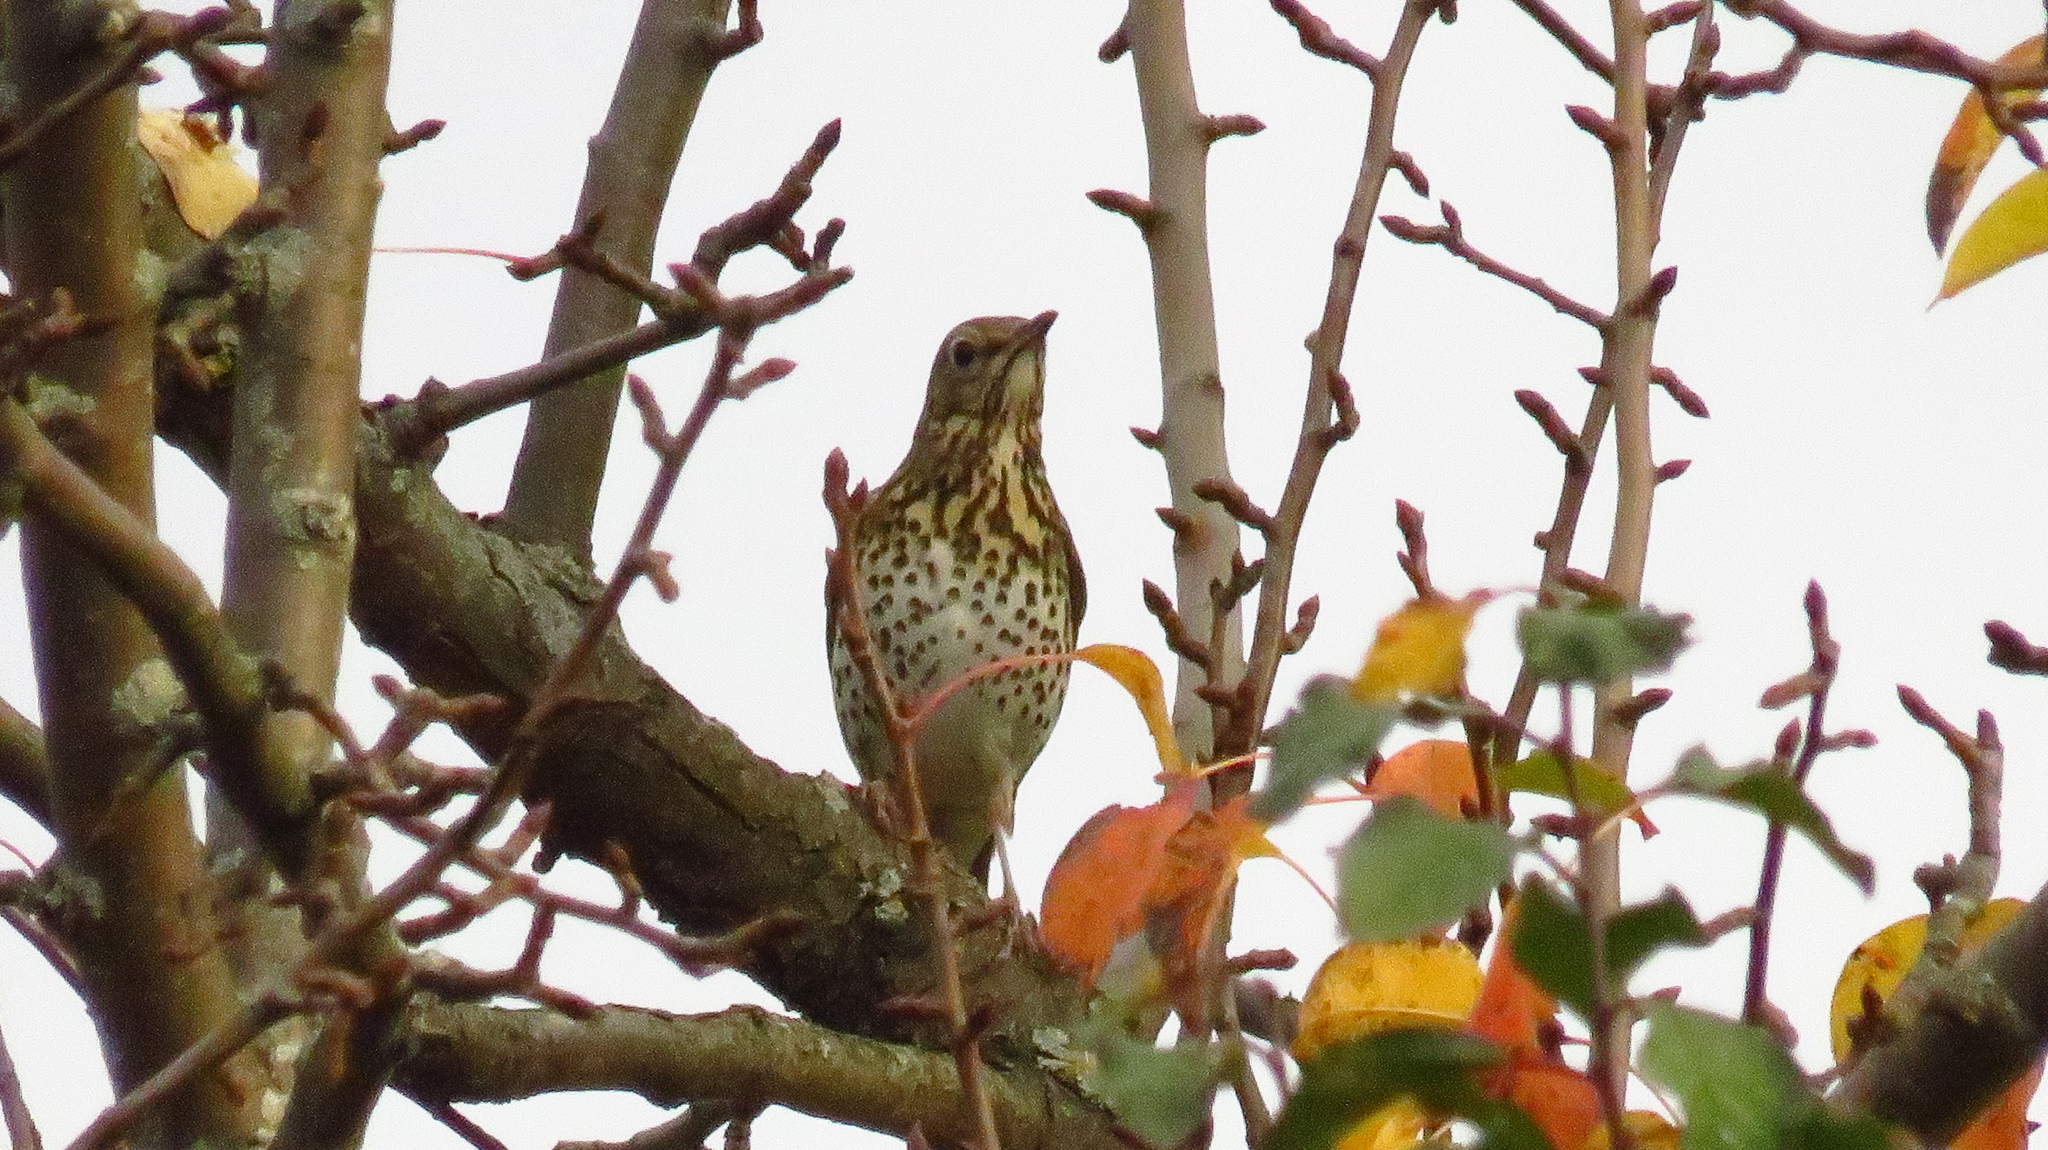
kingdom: Animalia
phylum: Chordata
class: Aves
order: Passeriformes
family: Turdidae
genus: Turdus
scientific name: Turdus philomelos
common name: Song thrush
